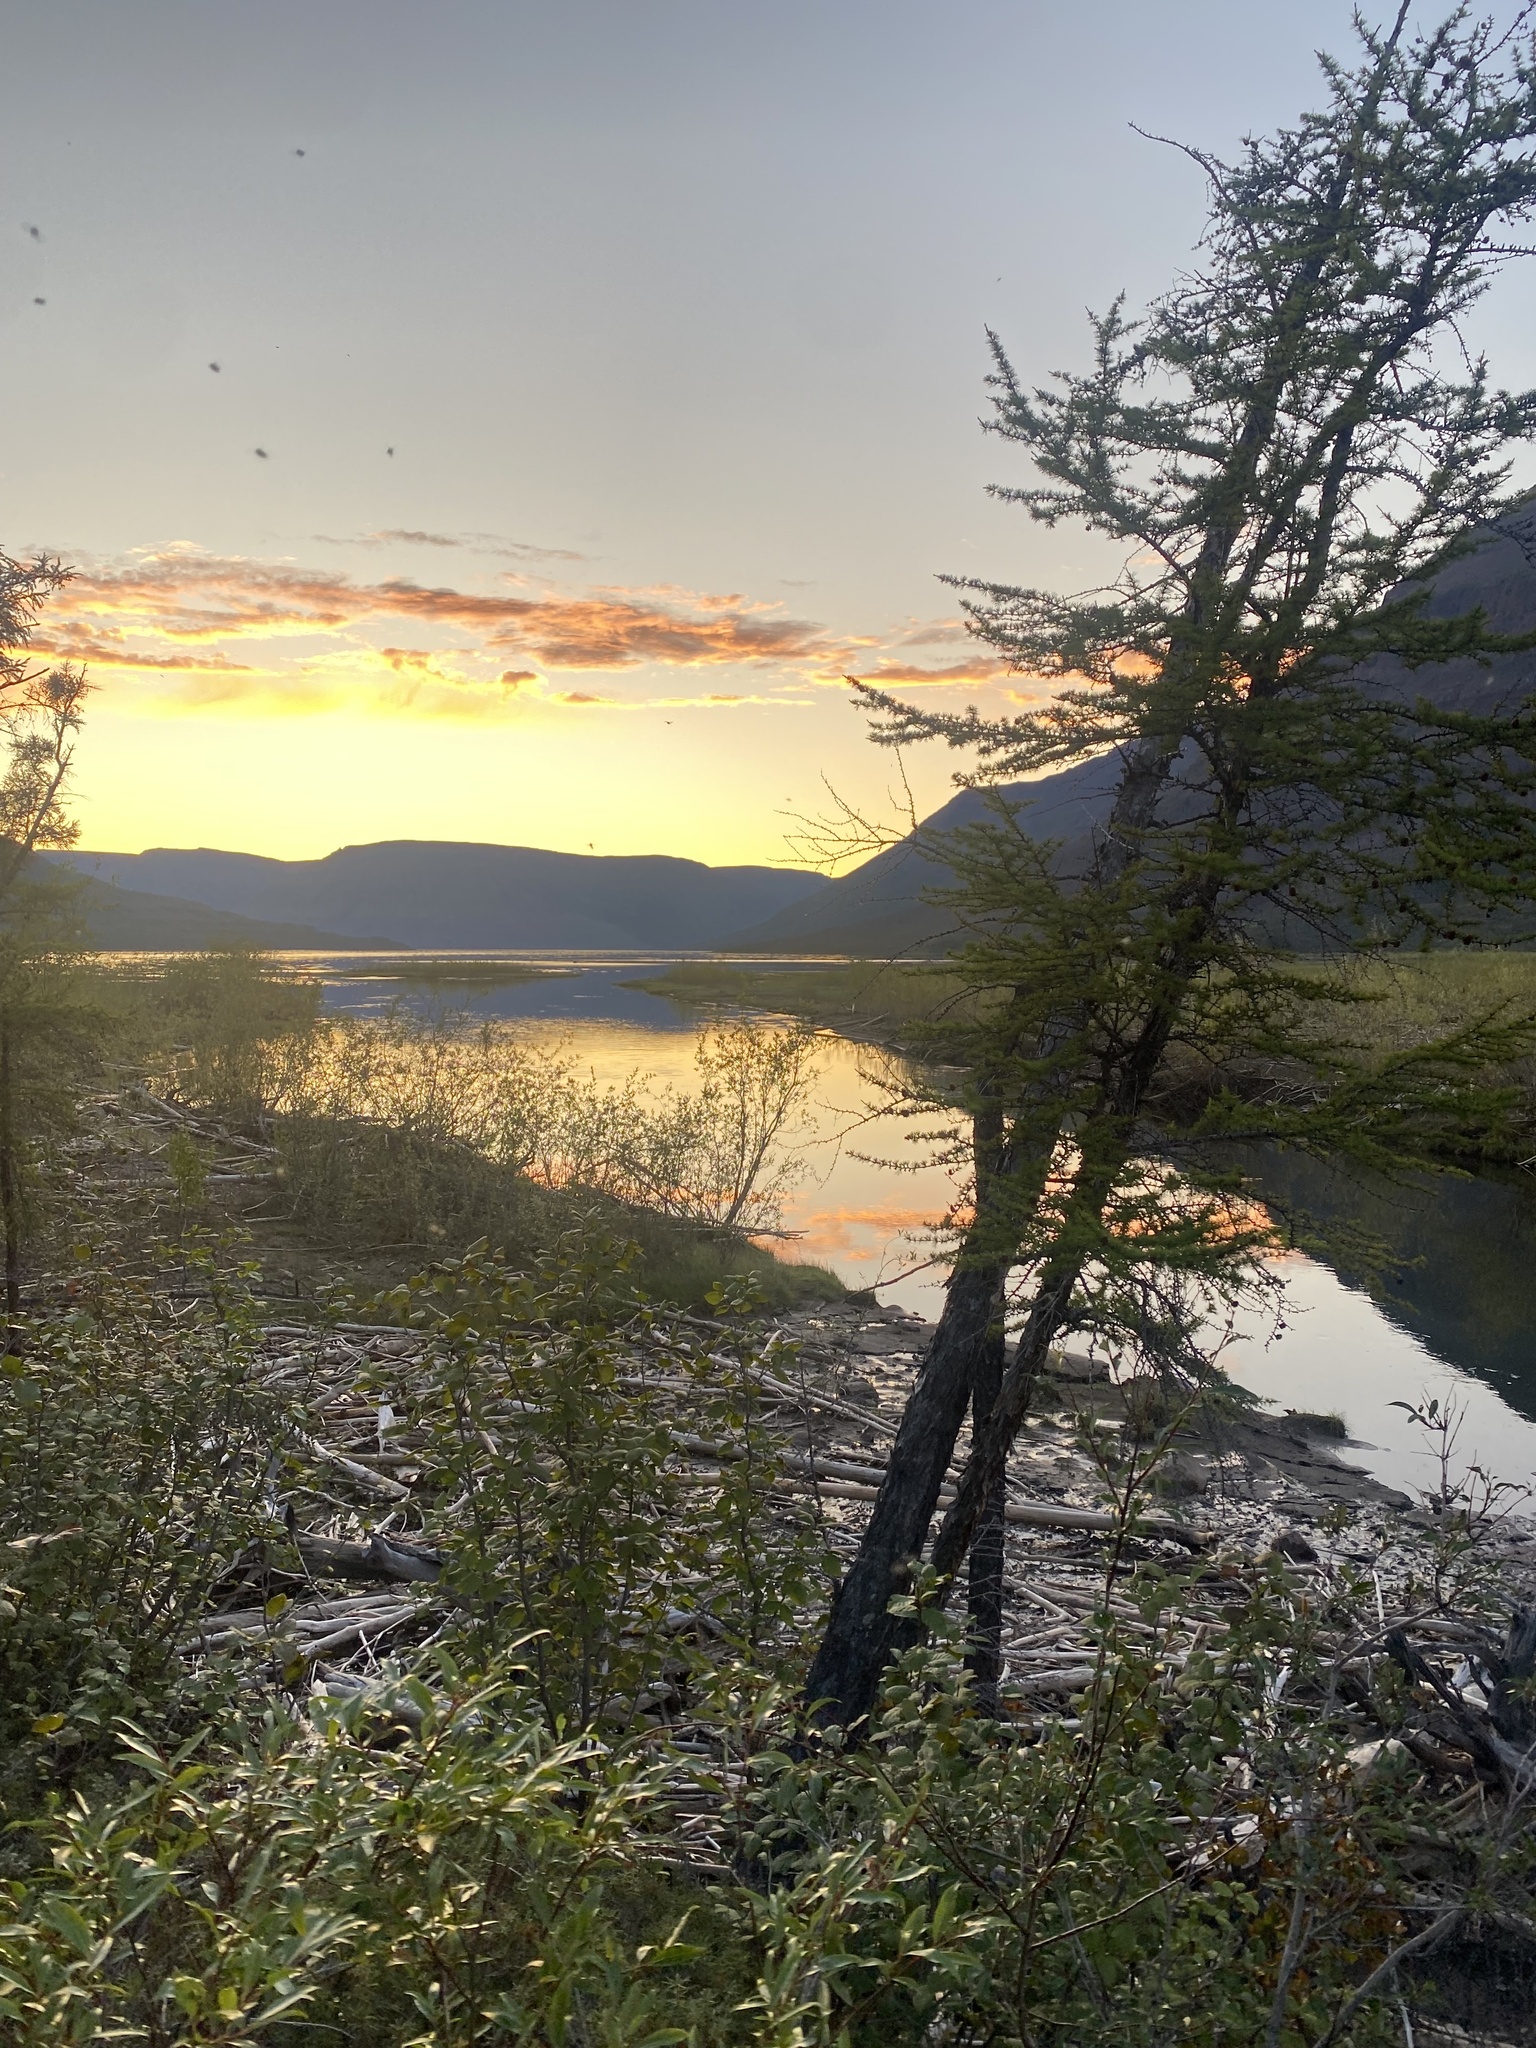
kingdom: Plantae
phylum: Tracheophyta
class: Magnoliopsida
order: Malpighiales
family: Salicaceae
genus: Salix
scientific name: Salix boganidensis
